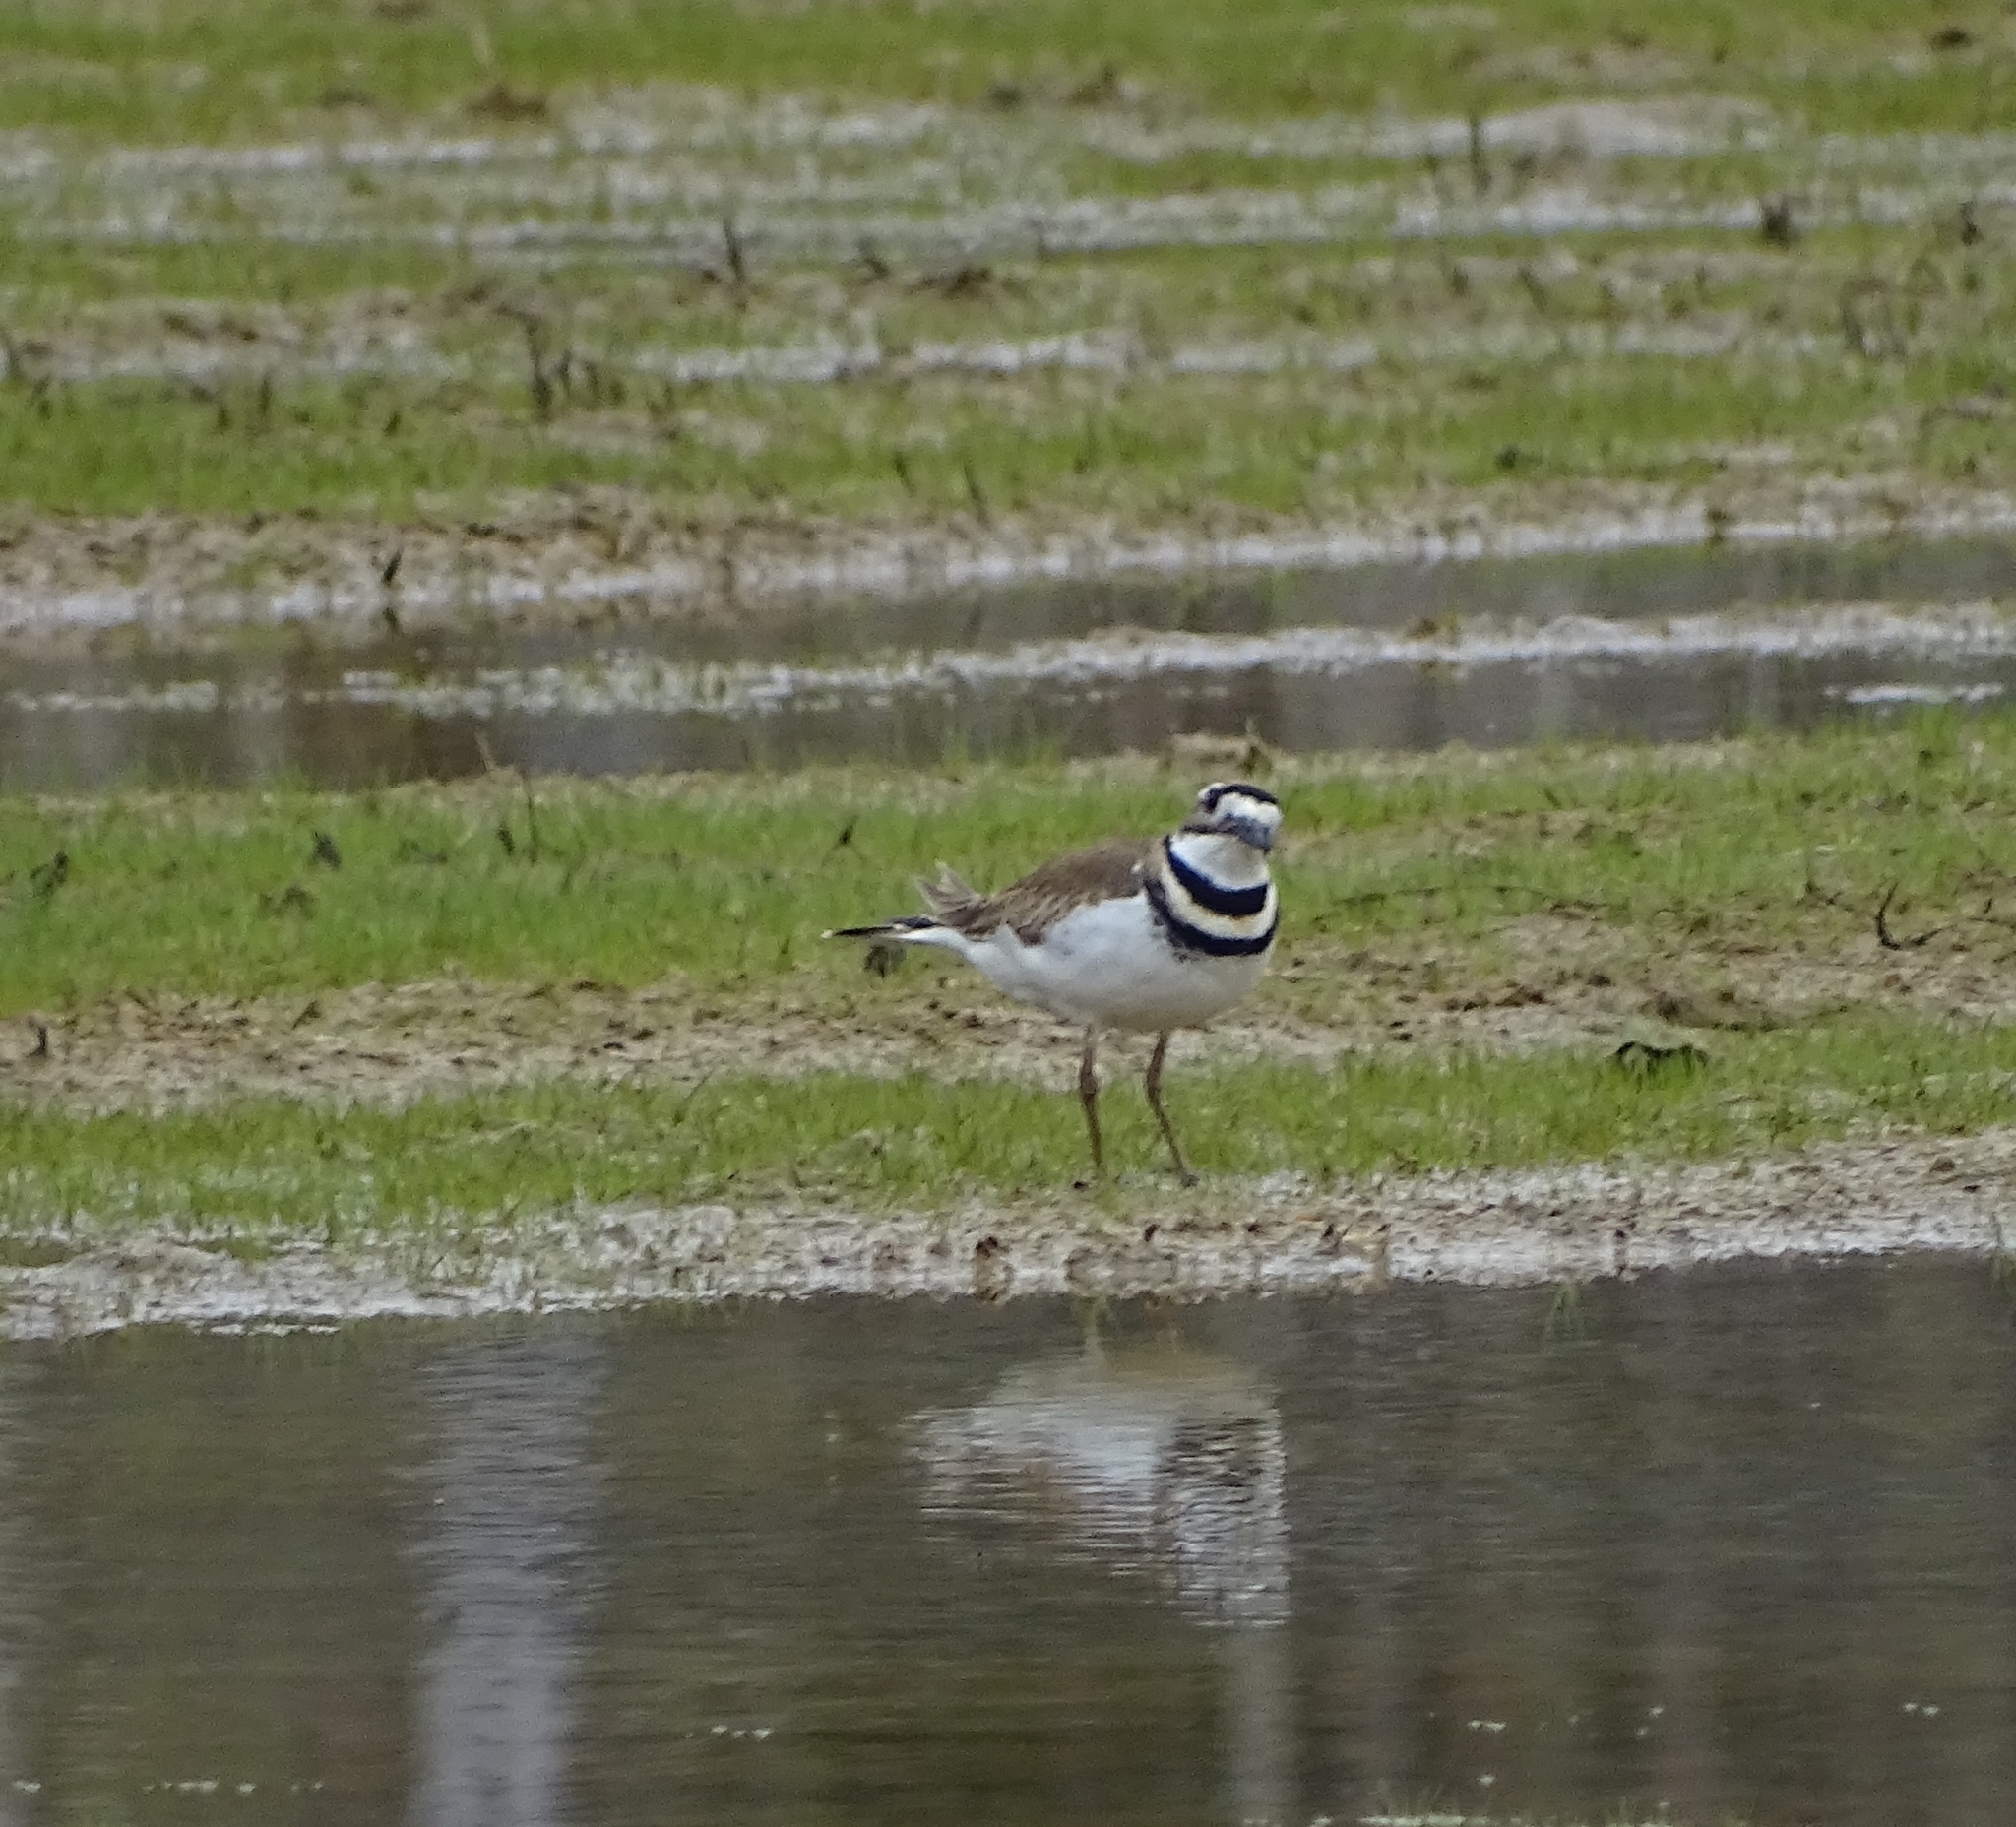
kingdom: Animalia
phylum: Chordata
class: Aves
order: Charadriiformes
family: Charadriidae
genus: Charadrius
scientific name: Charadrius vociferus
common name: Killdeer
